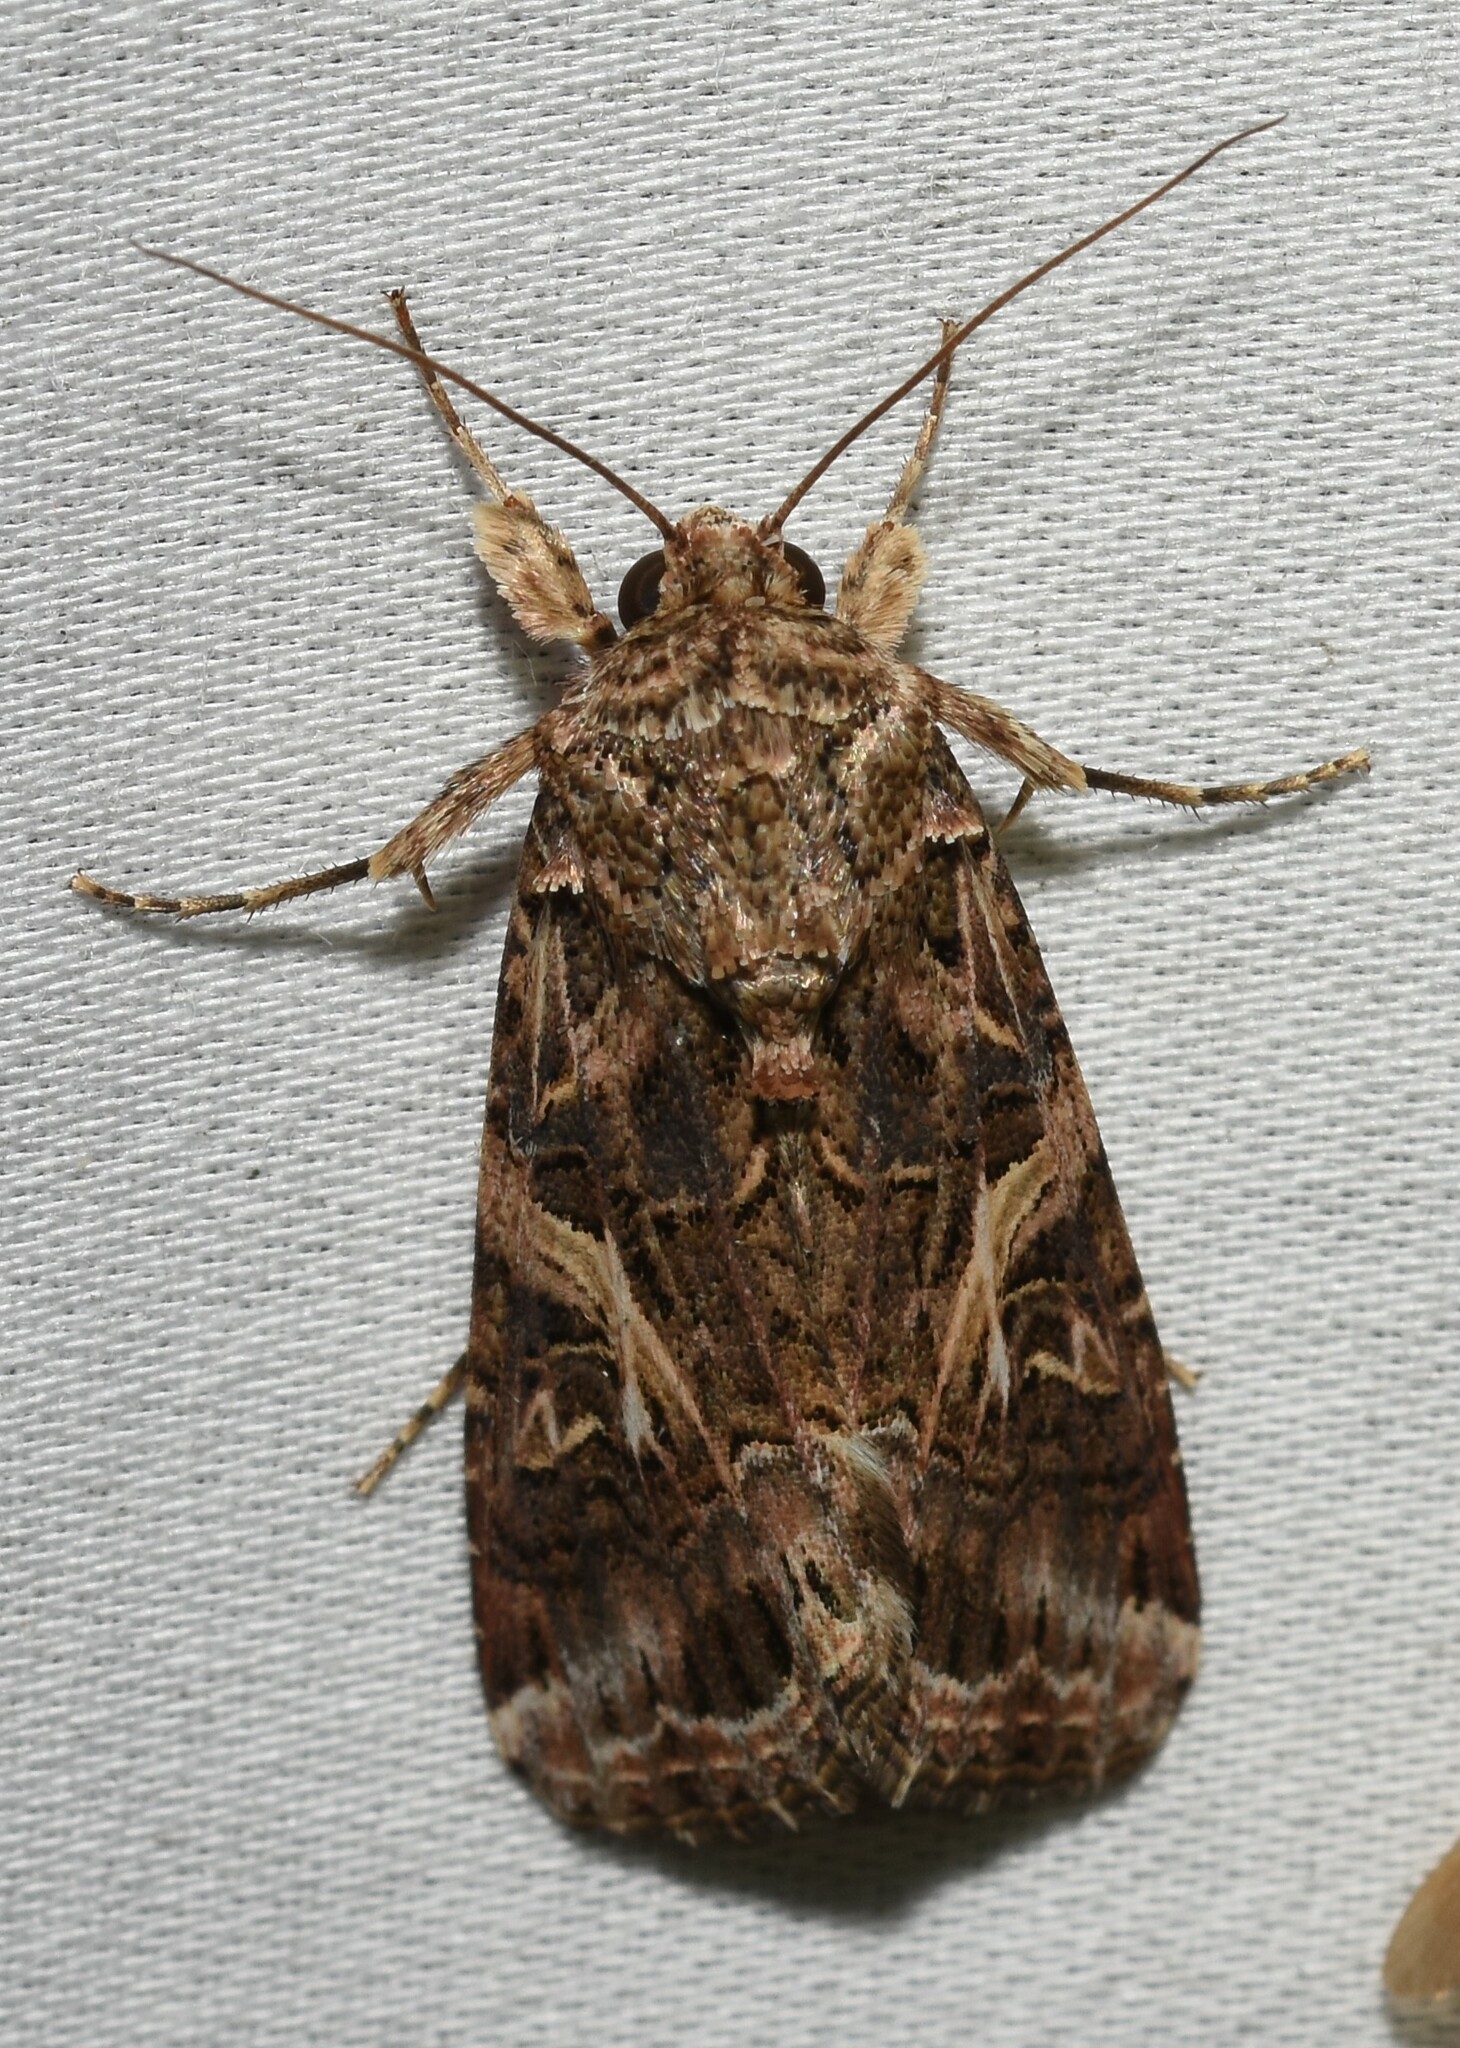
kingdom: Animalia
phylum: Arthropoda
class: Insecta
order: Lepidoptera
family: Noctuidae
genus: Spodoptera
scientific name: Spodoptera ornithogalli
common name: Yellow-striped armyworm
